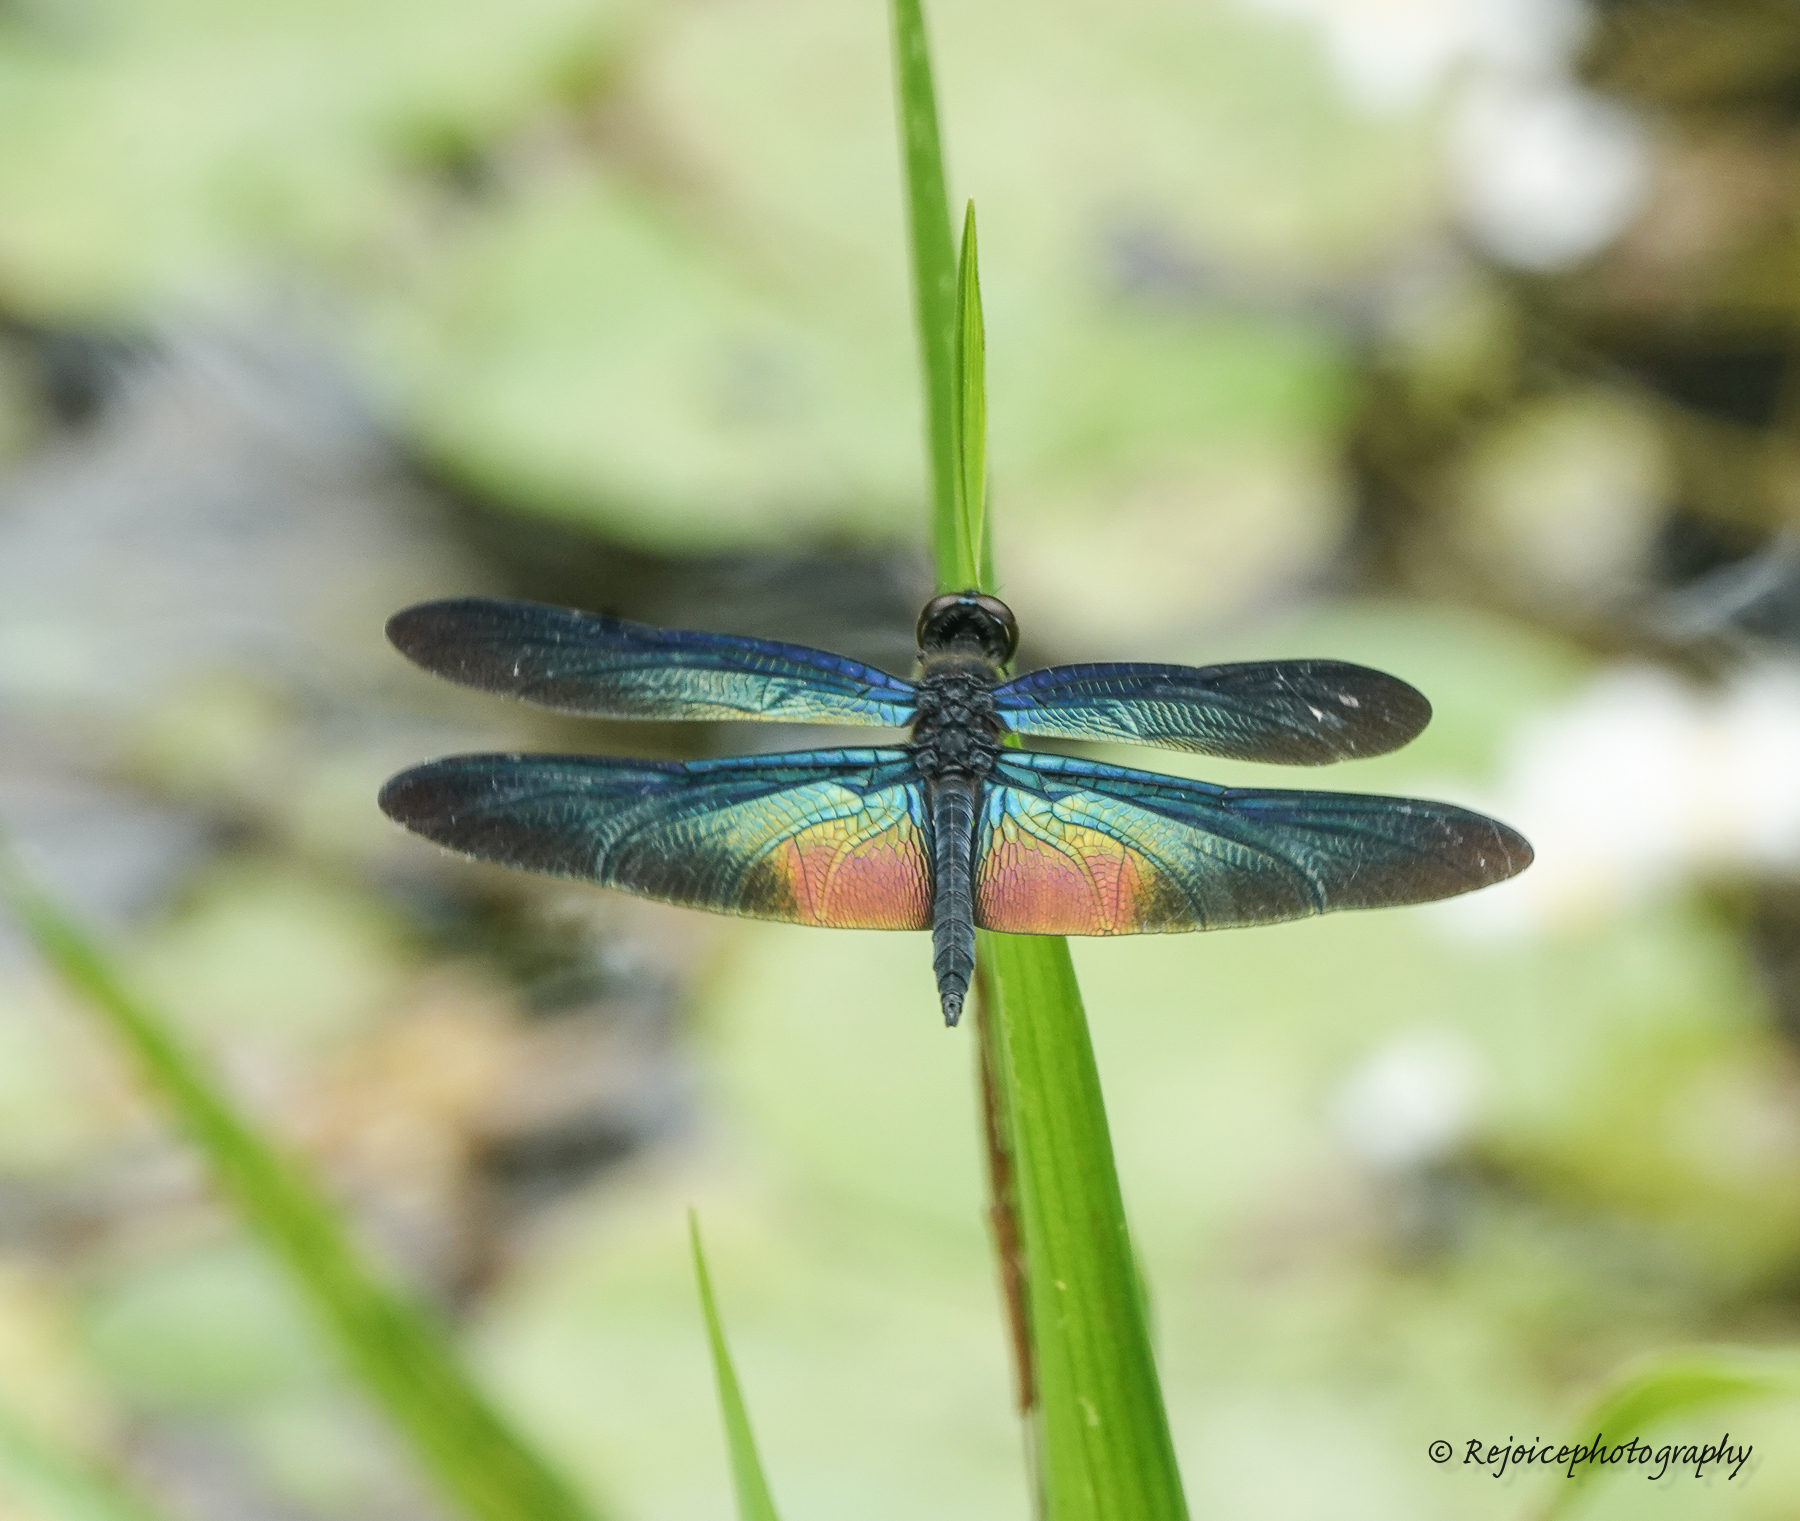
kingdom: Animalia
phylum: Arthropoda
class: Insecta
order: Odonata
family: Libellulidae
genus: Rhyothemis
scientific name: Rhyothemis plutonia
